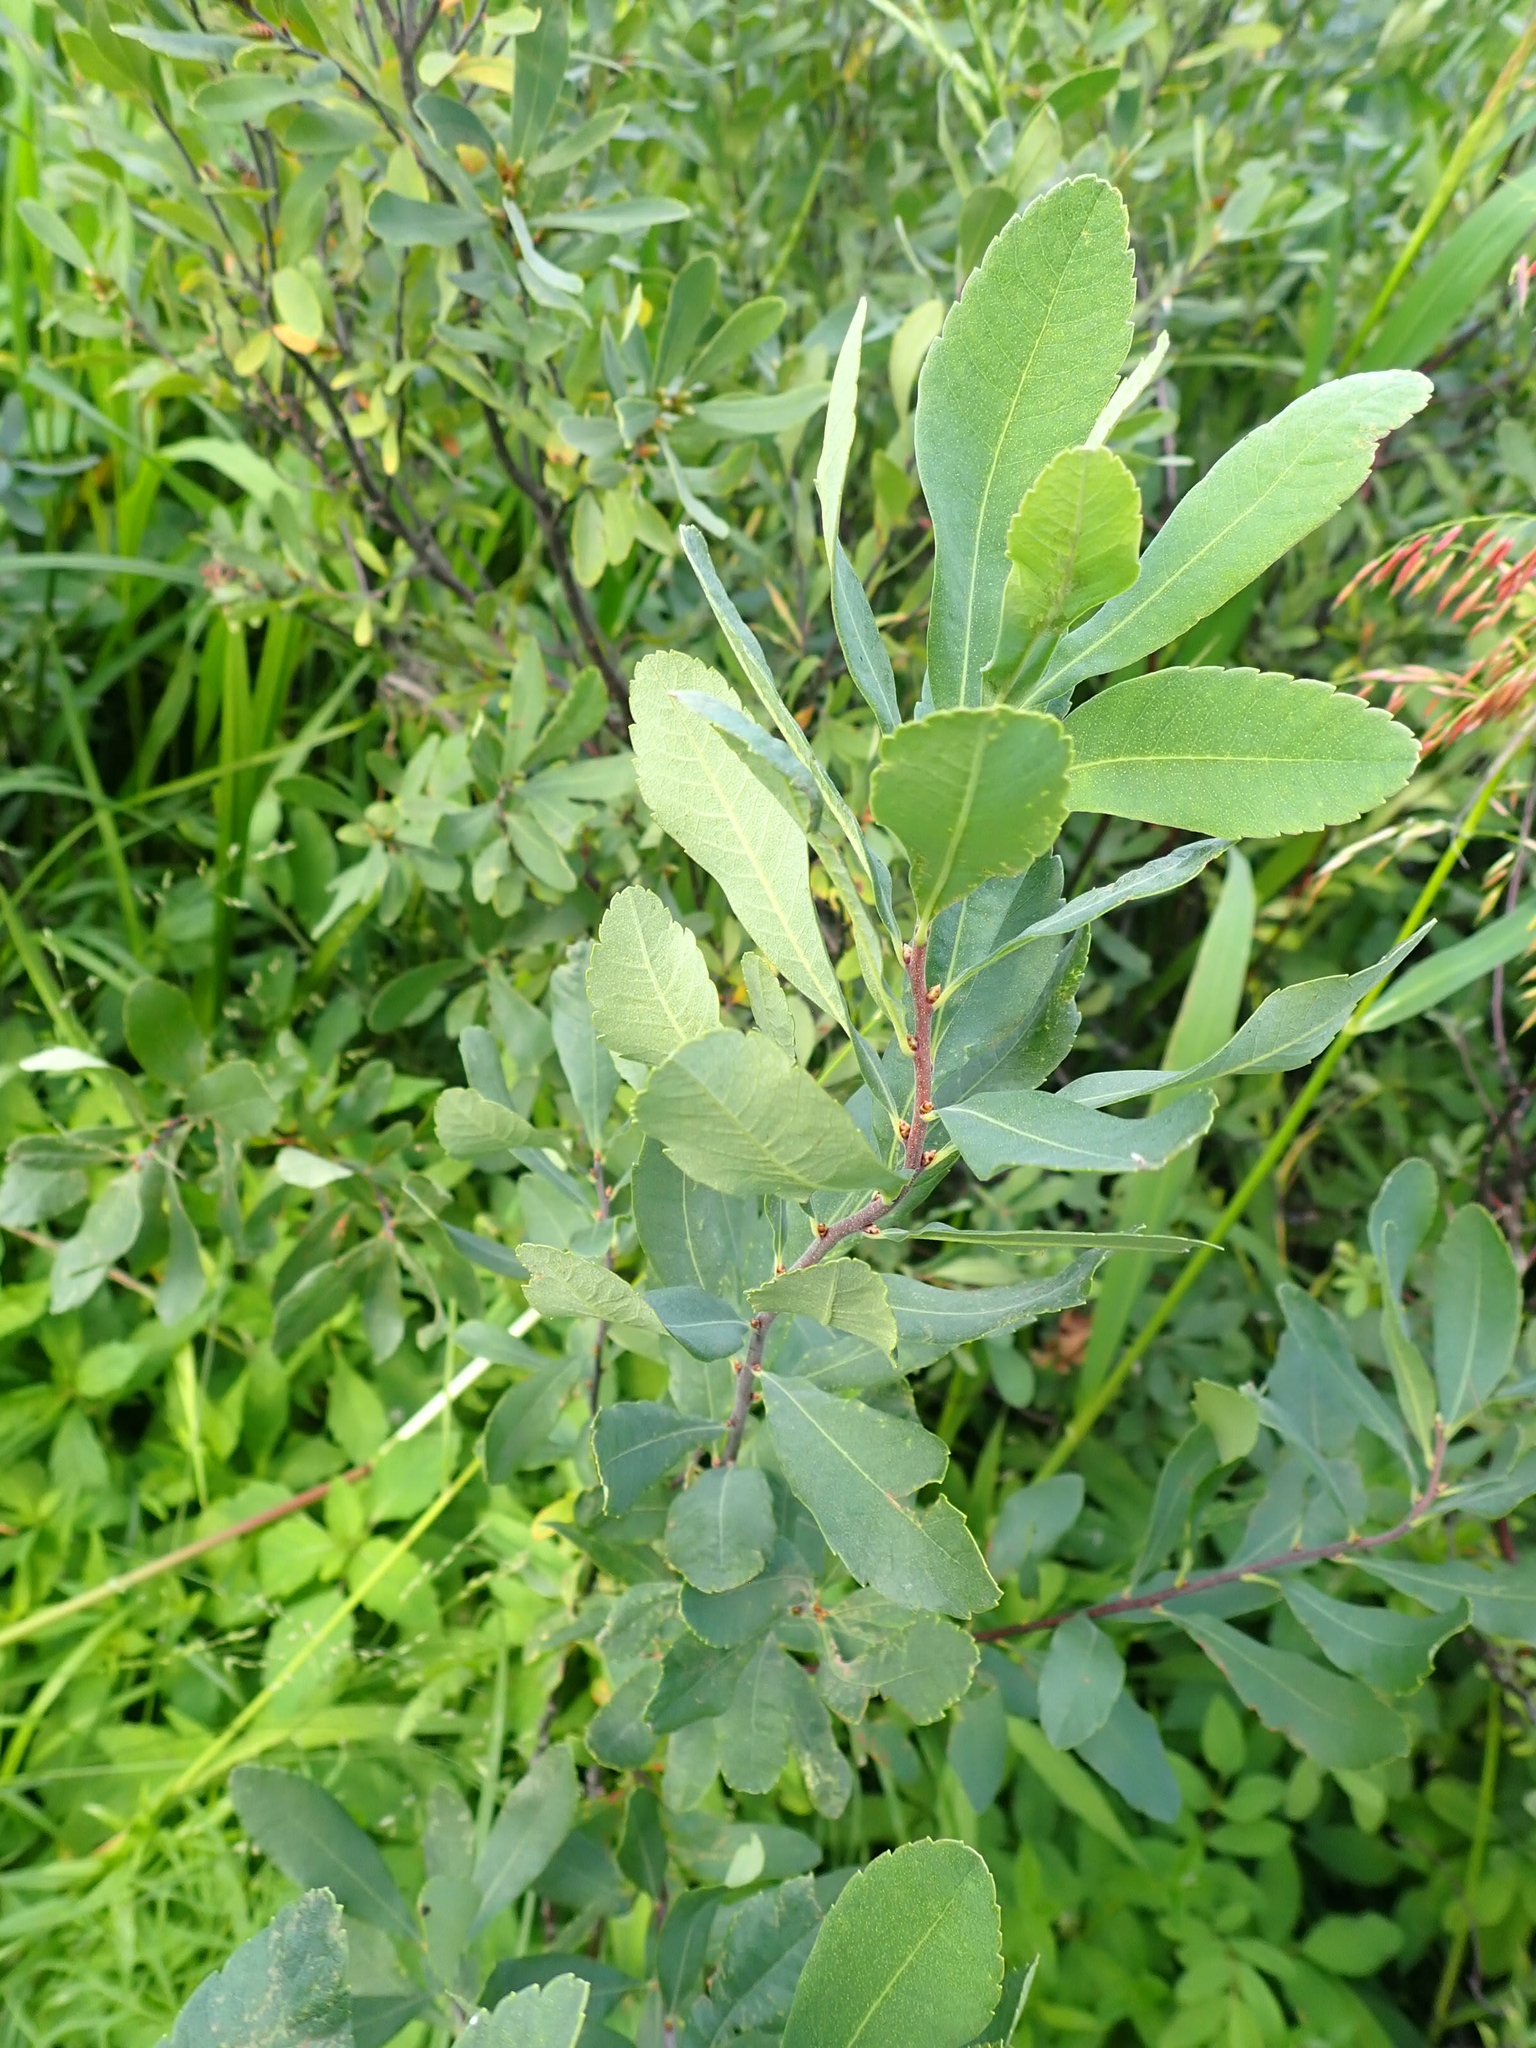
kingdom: Plantae
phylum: Tracheophyta
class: Magnoliopsida
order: Fagales
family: Myricaceae
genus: Myrica
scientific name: Myrica gale
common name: Sweet gale
